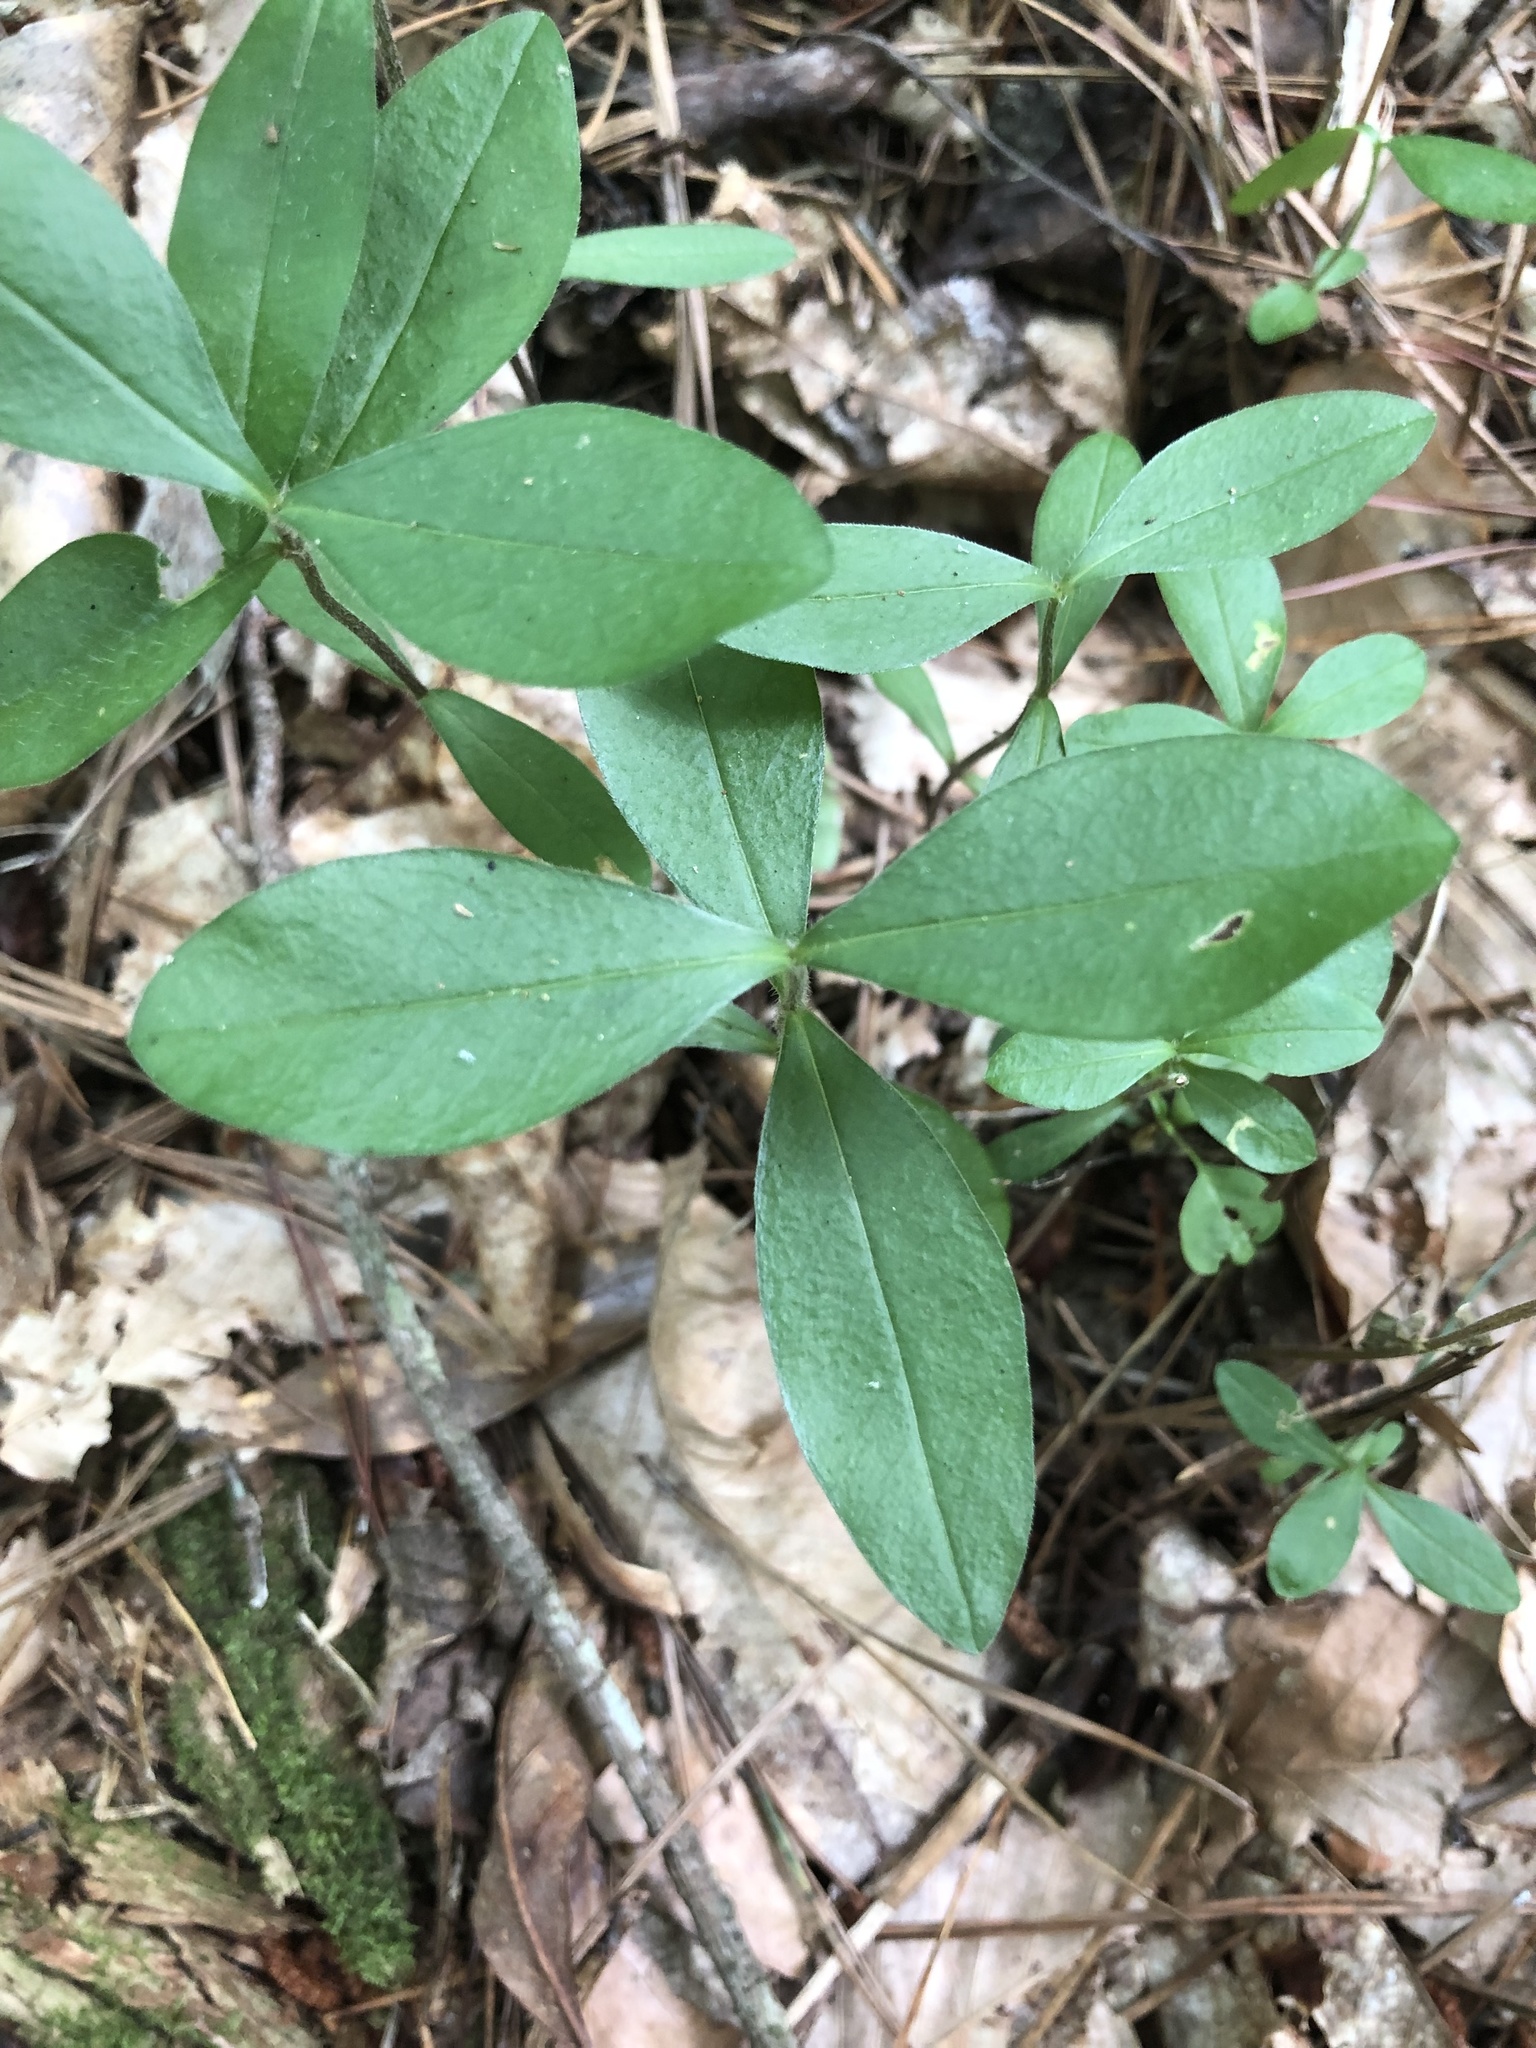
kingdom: Plantae
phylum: Tracheophyta
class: Magnoliopsida
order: Ericales
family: Polemoniaceae
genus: Phlox
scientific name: Phlox divaricata
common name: Blue phlox
